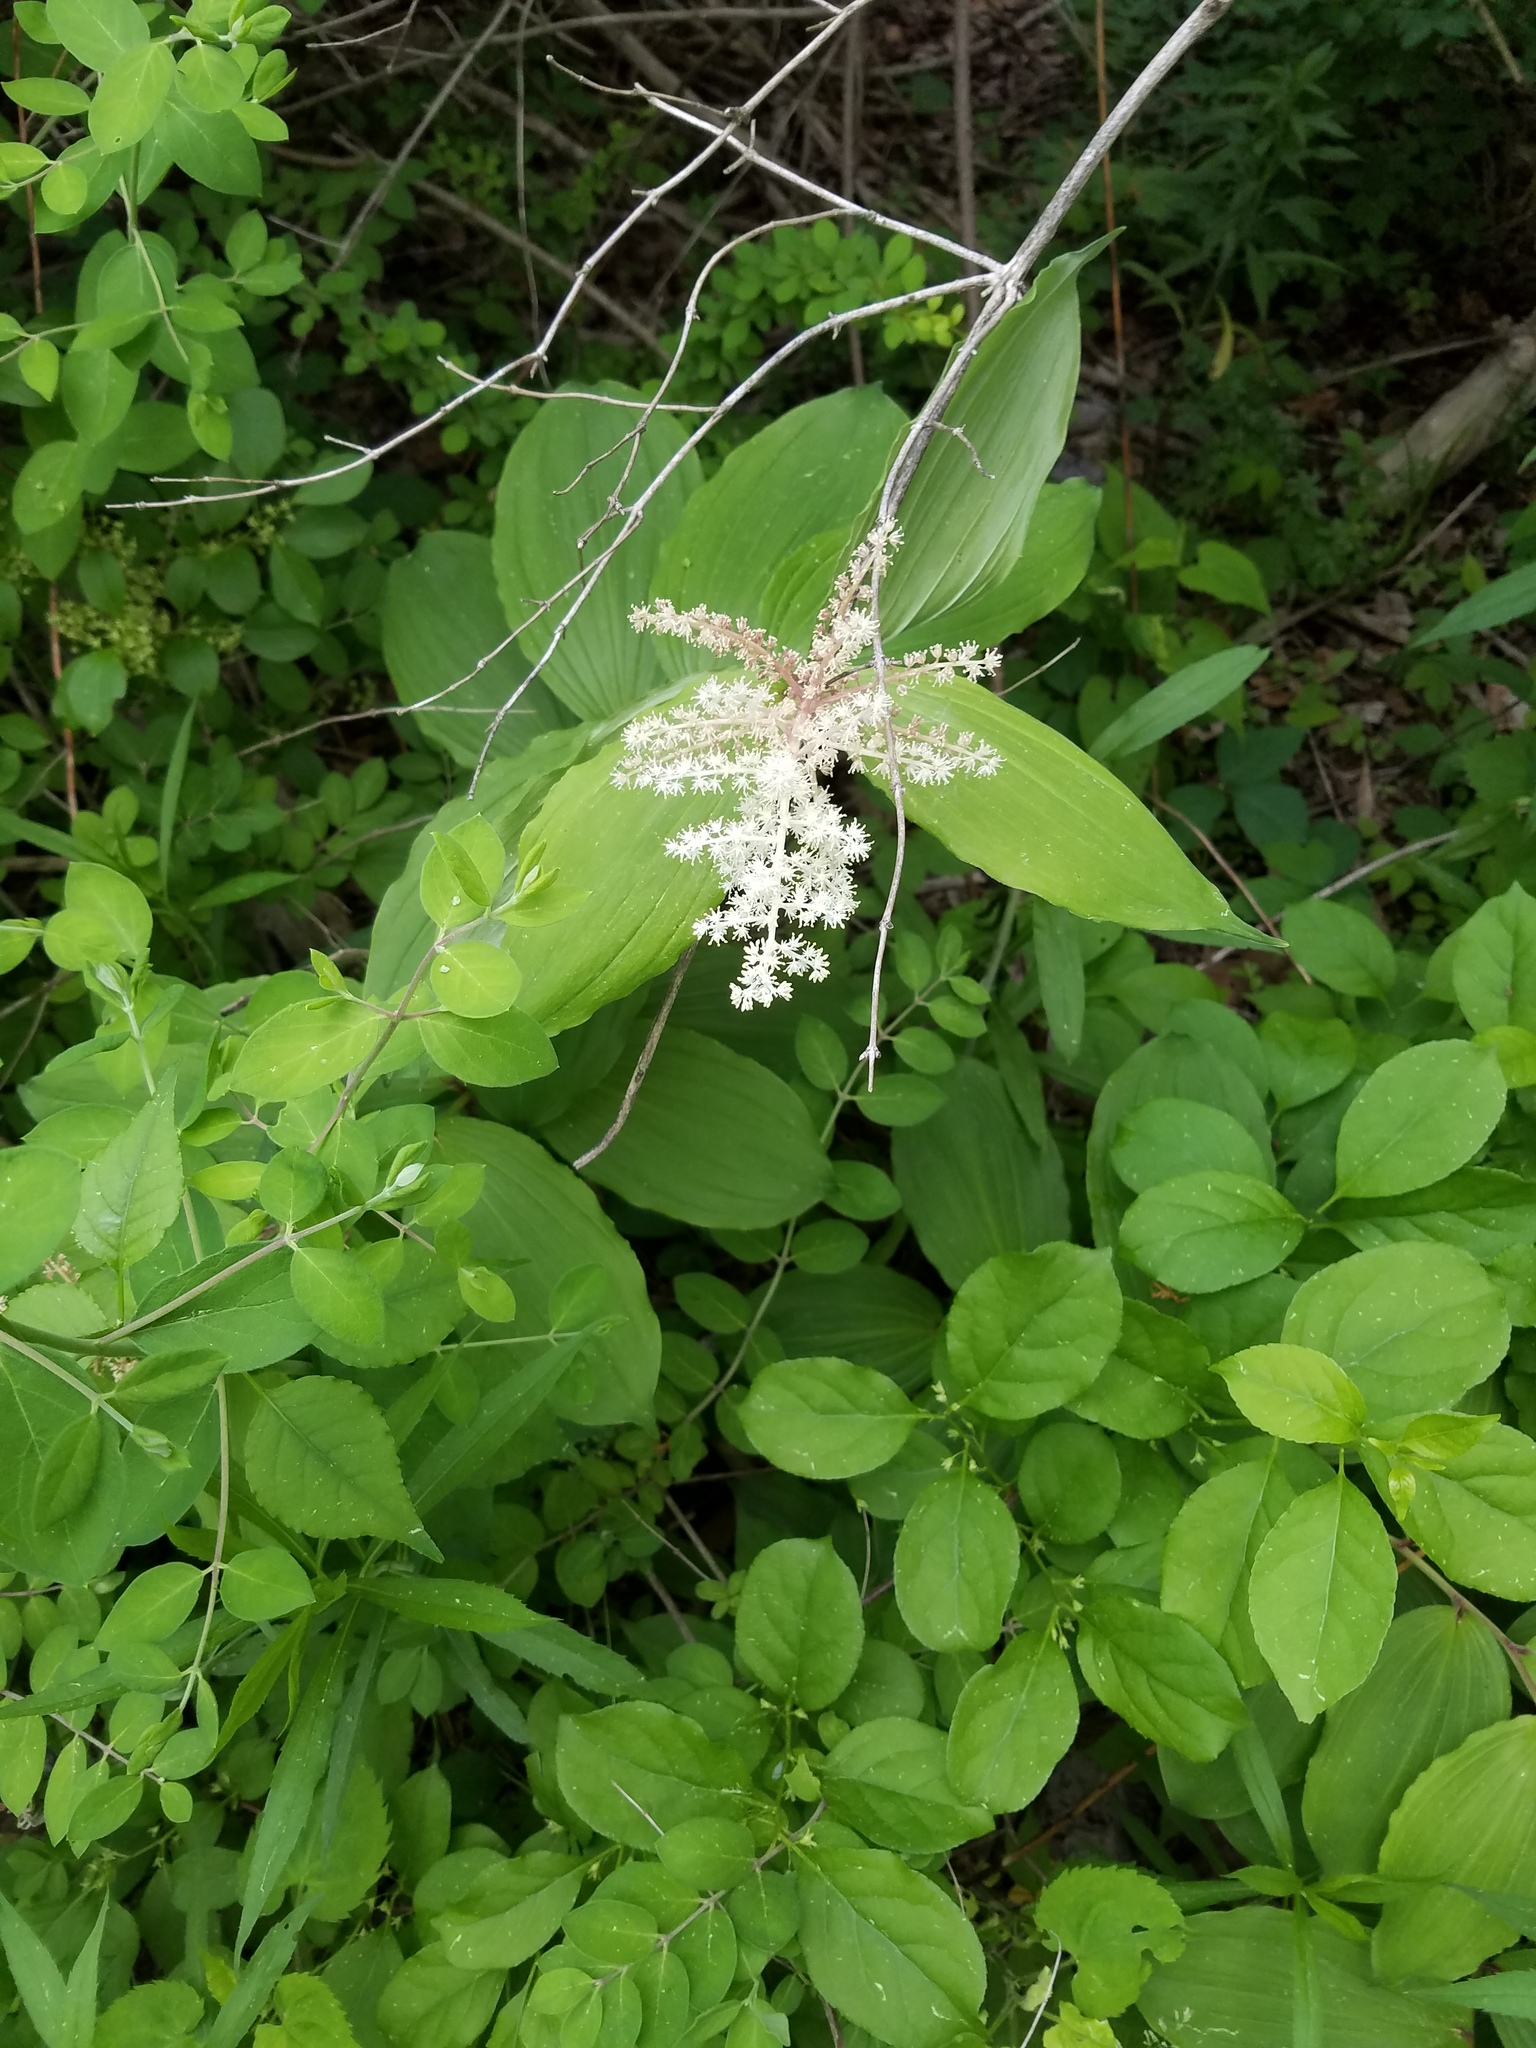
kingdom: Plantae
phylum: Tracheophyta
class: Liliopsida
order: Asparagales
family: Asparagaceae
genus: Maianthemum
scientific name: Maianthemum racemosum
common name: False spikenard
